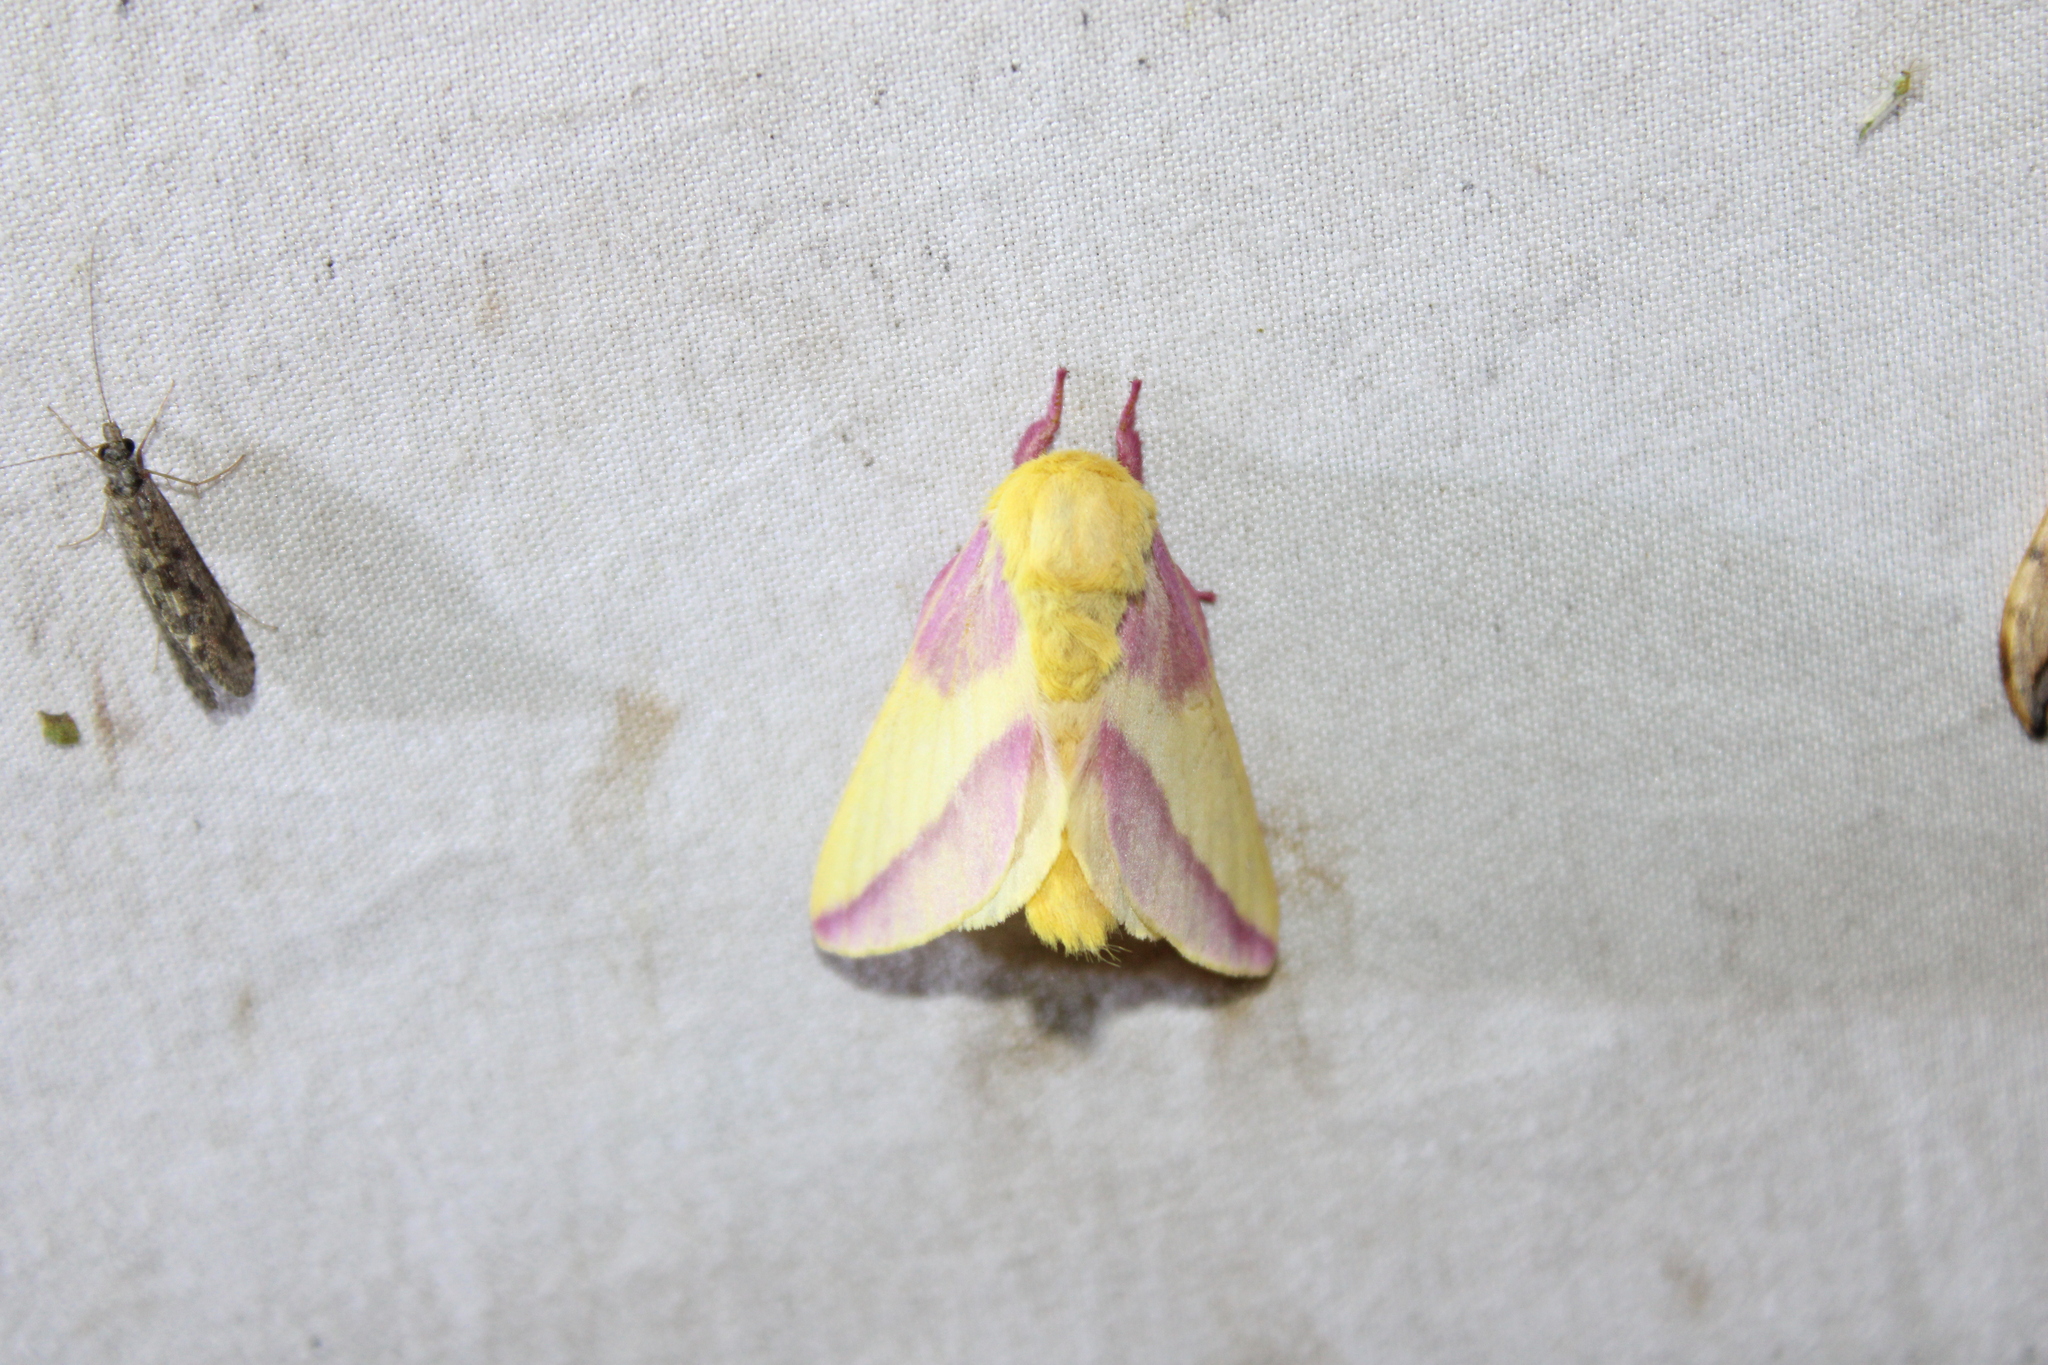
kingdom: Animalia
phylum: Arthropoda
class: Insecta
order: Lepidoptera
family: Saturniidae
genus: Dryocampa
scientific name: Dryocampa rubicunda
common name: Rosy maple moth
